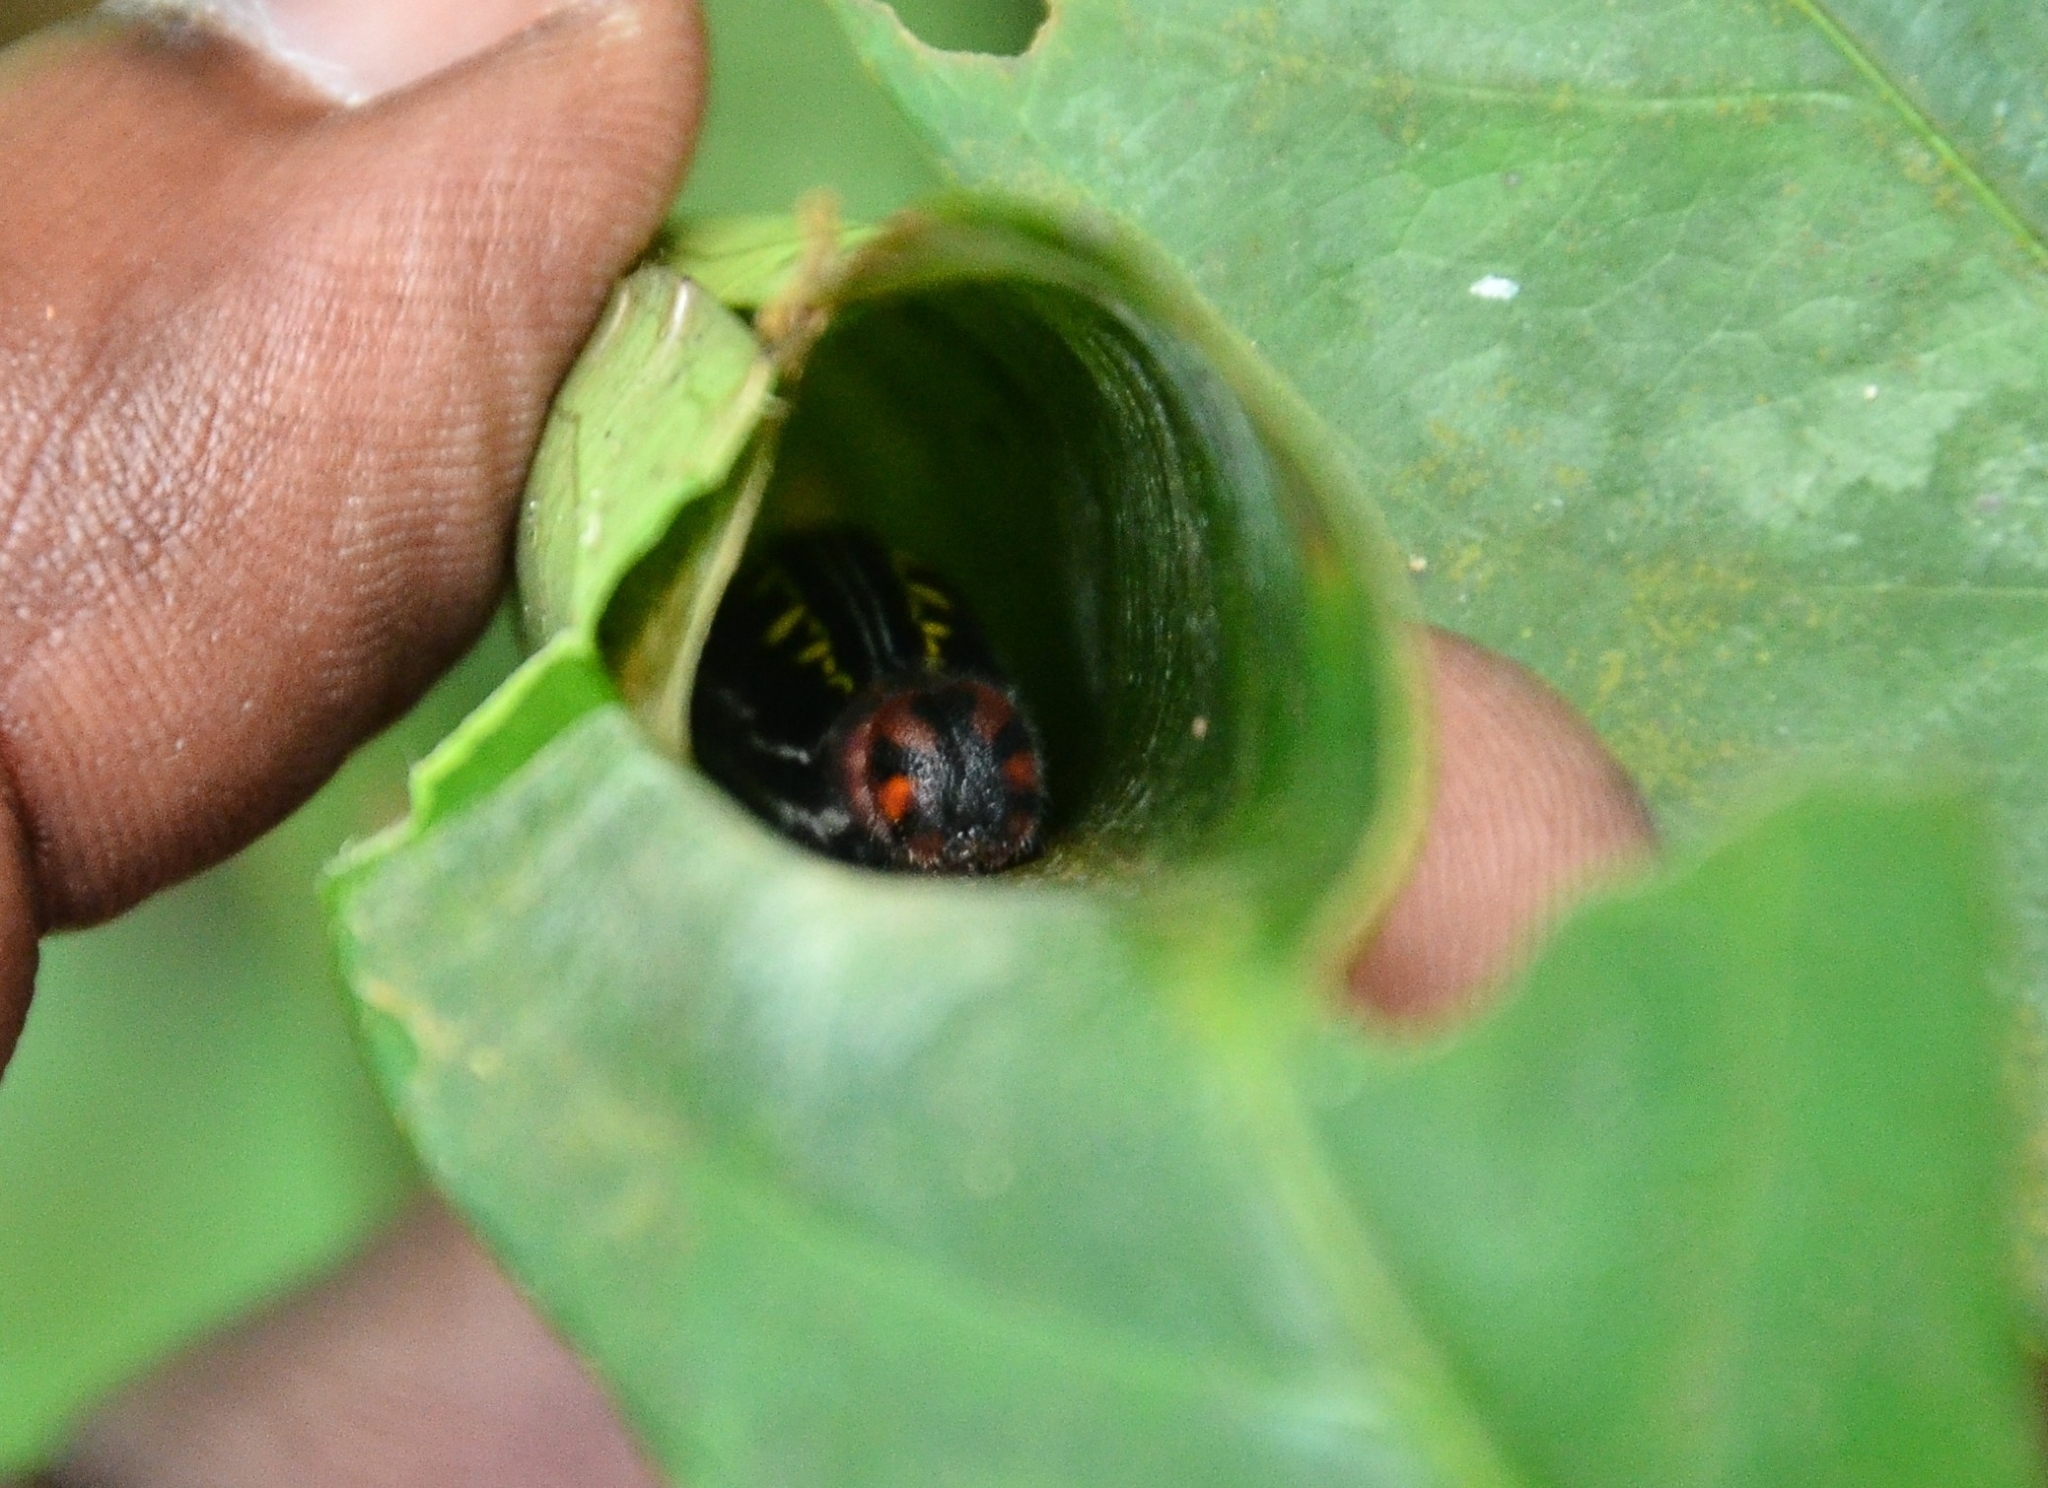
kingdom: Animalia
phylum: Arthropoda
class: Insecta
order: Lepidoptera
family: Hesperiidae
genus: Bibasis
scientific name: Bibasis jaina
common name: Common orange awlet
